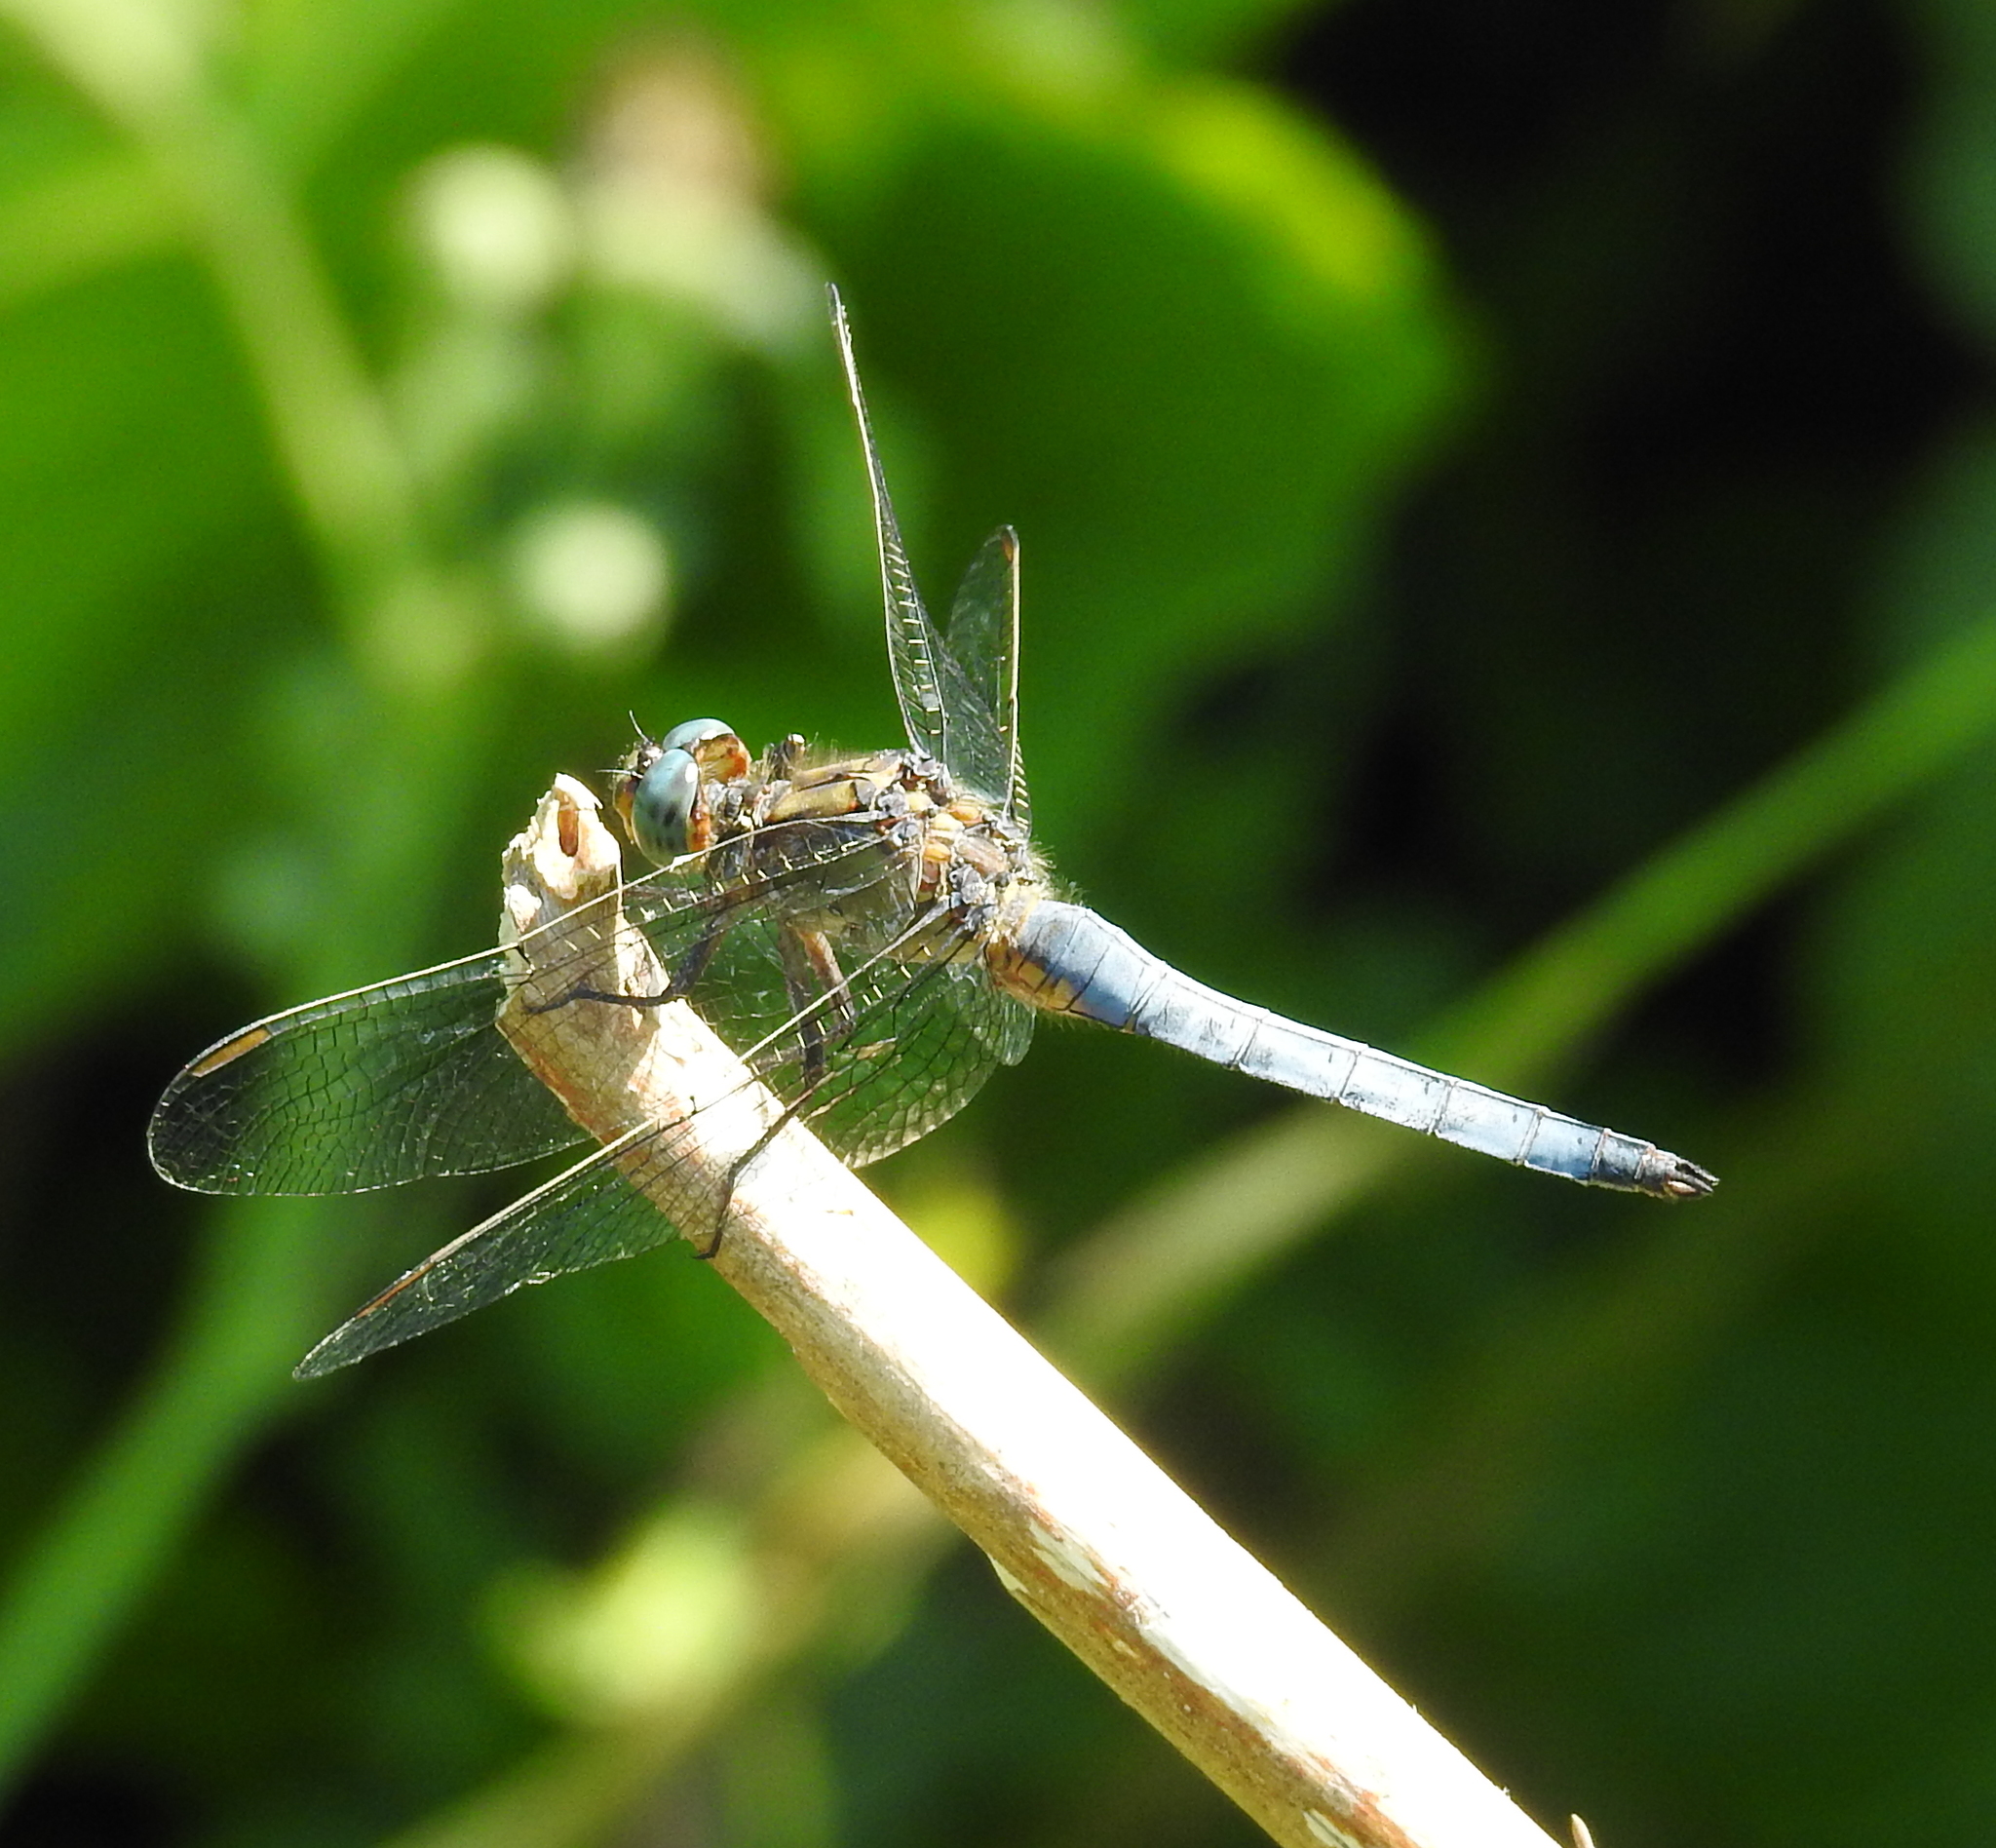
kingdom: Animalia
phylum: Arthropoda
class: Insecta
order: Odonata
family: Libellulidae
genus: Orthetrum
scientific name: Orthetrum coerulescens
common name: Keeled skimmer
